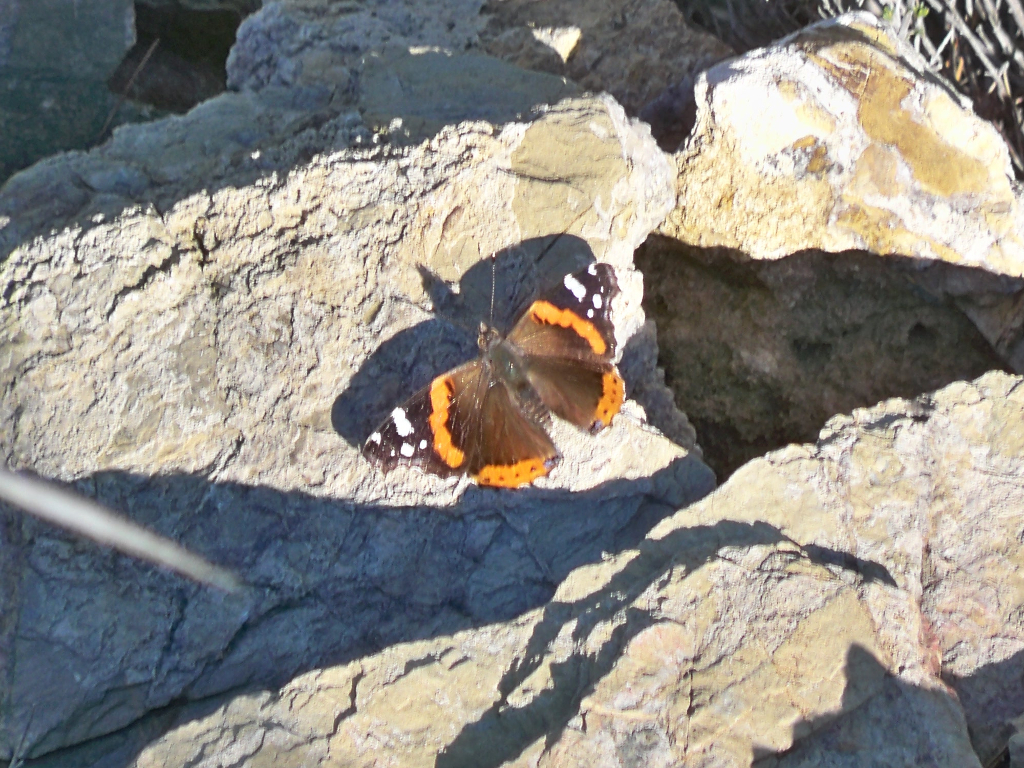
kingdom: Animalia
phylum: Arthropoda
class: Insecta
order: Lepidoptera
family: Nymphalidae
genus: Vanessa
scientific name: Vanessa atalanta
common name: Red admiral
